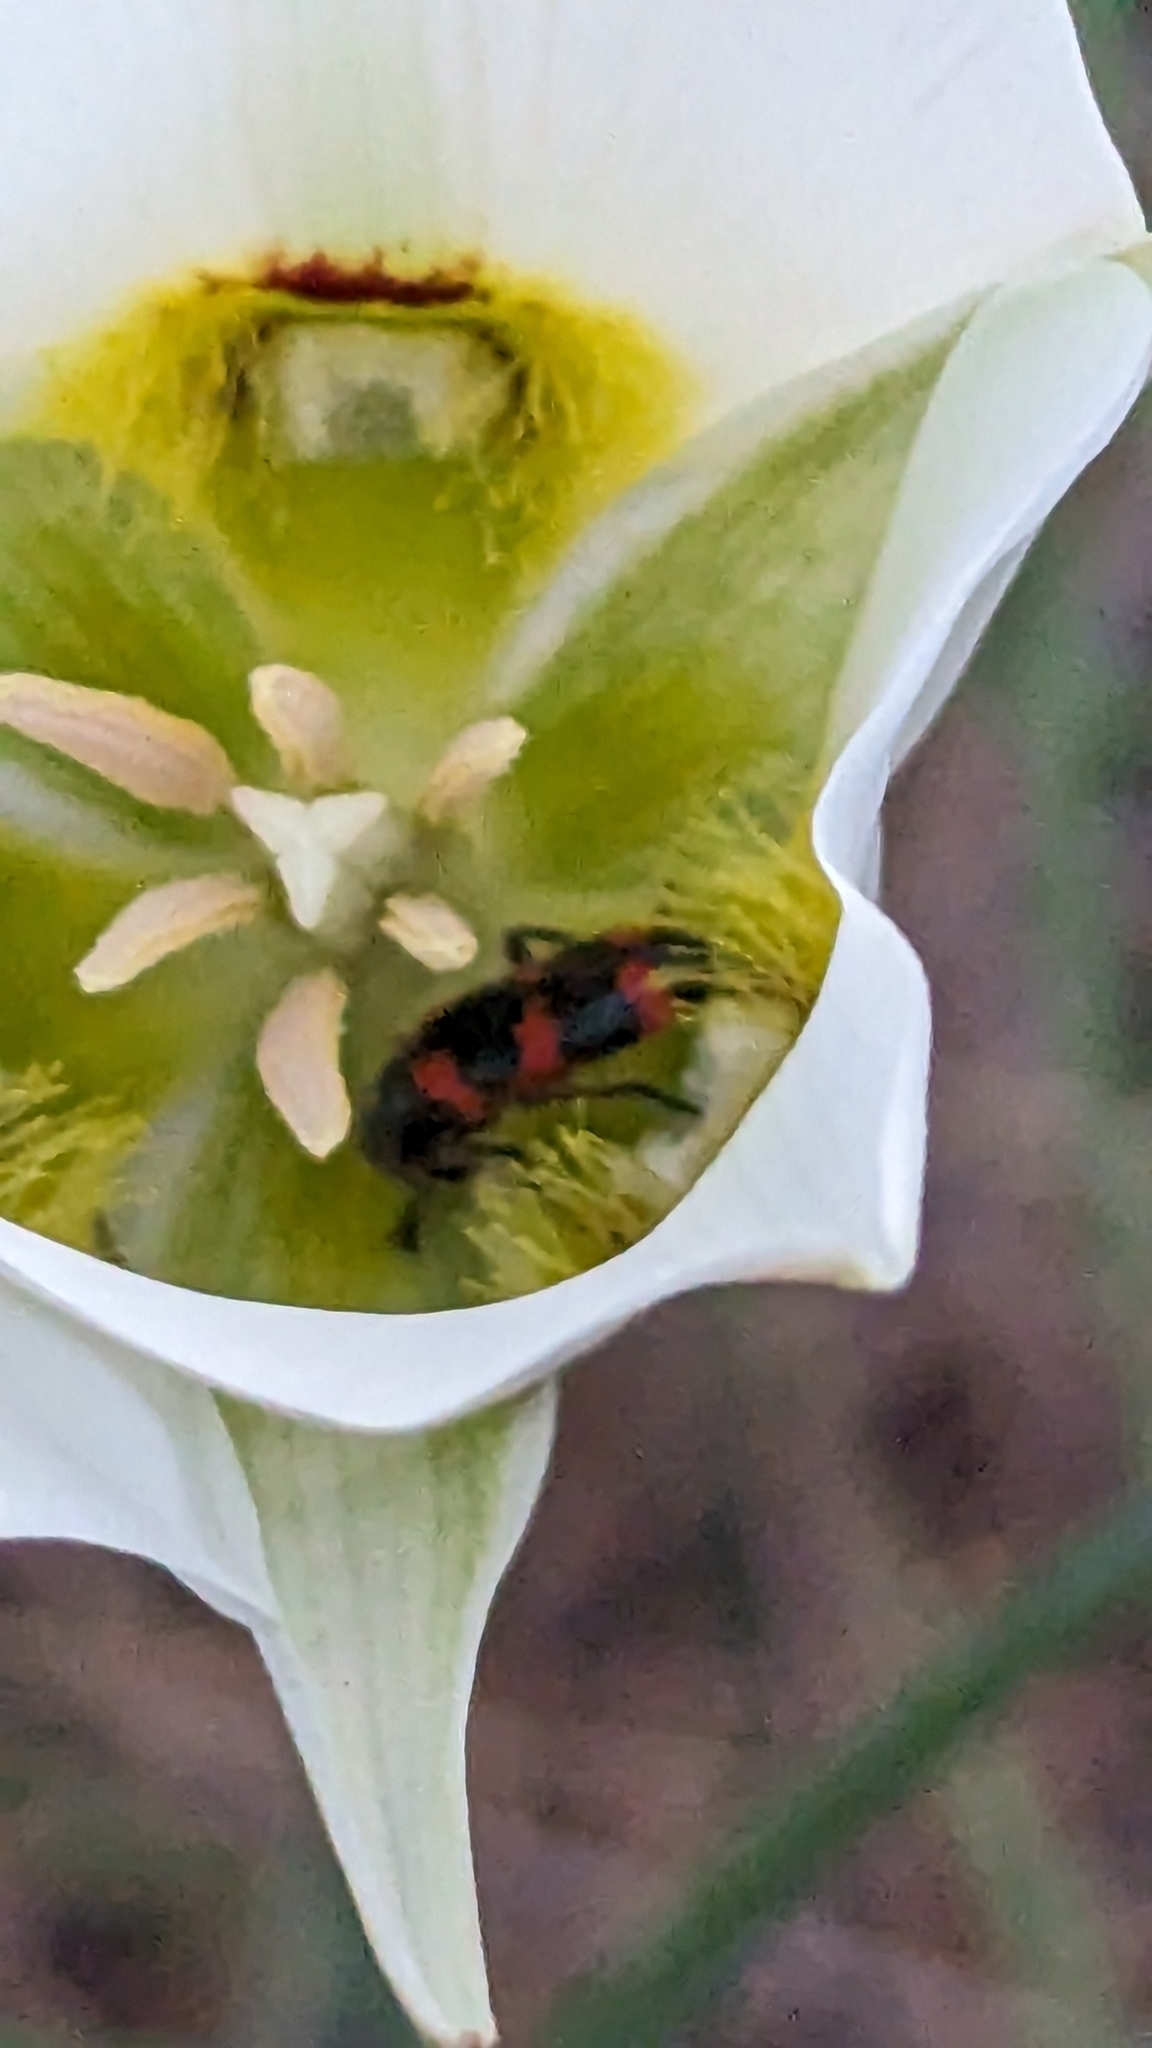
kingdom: Plantae
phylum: Tracheophyta
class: Liliopsida
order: Liliales
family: Liliaceae
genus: Calochortus
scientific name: Calochortus nuttallii
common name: Sego-lily
